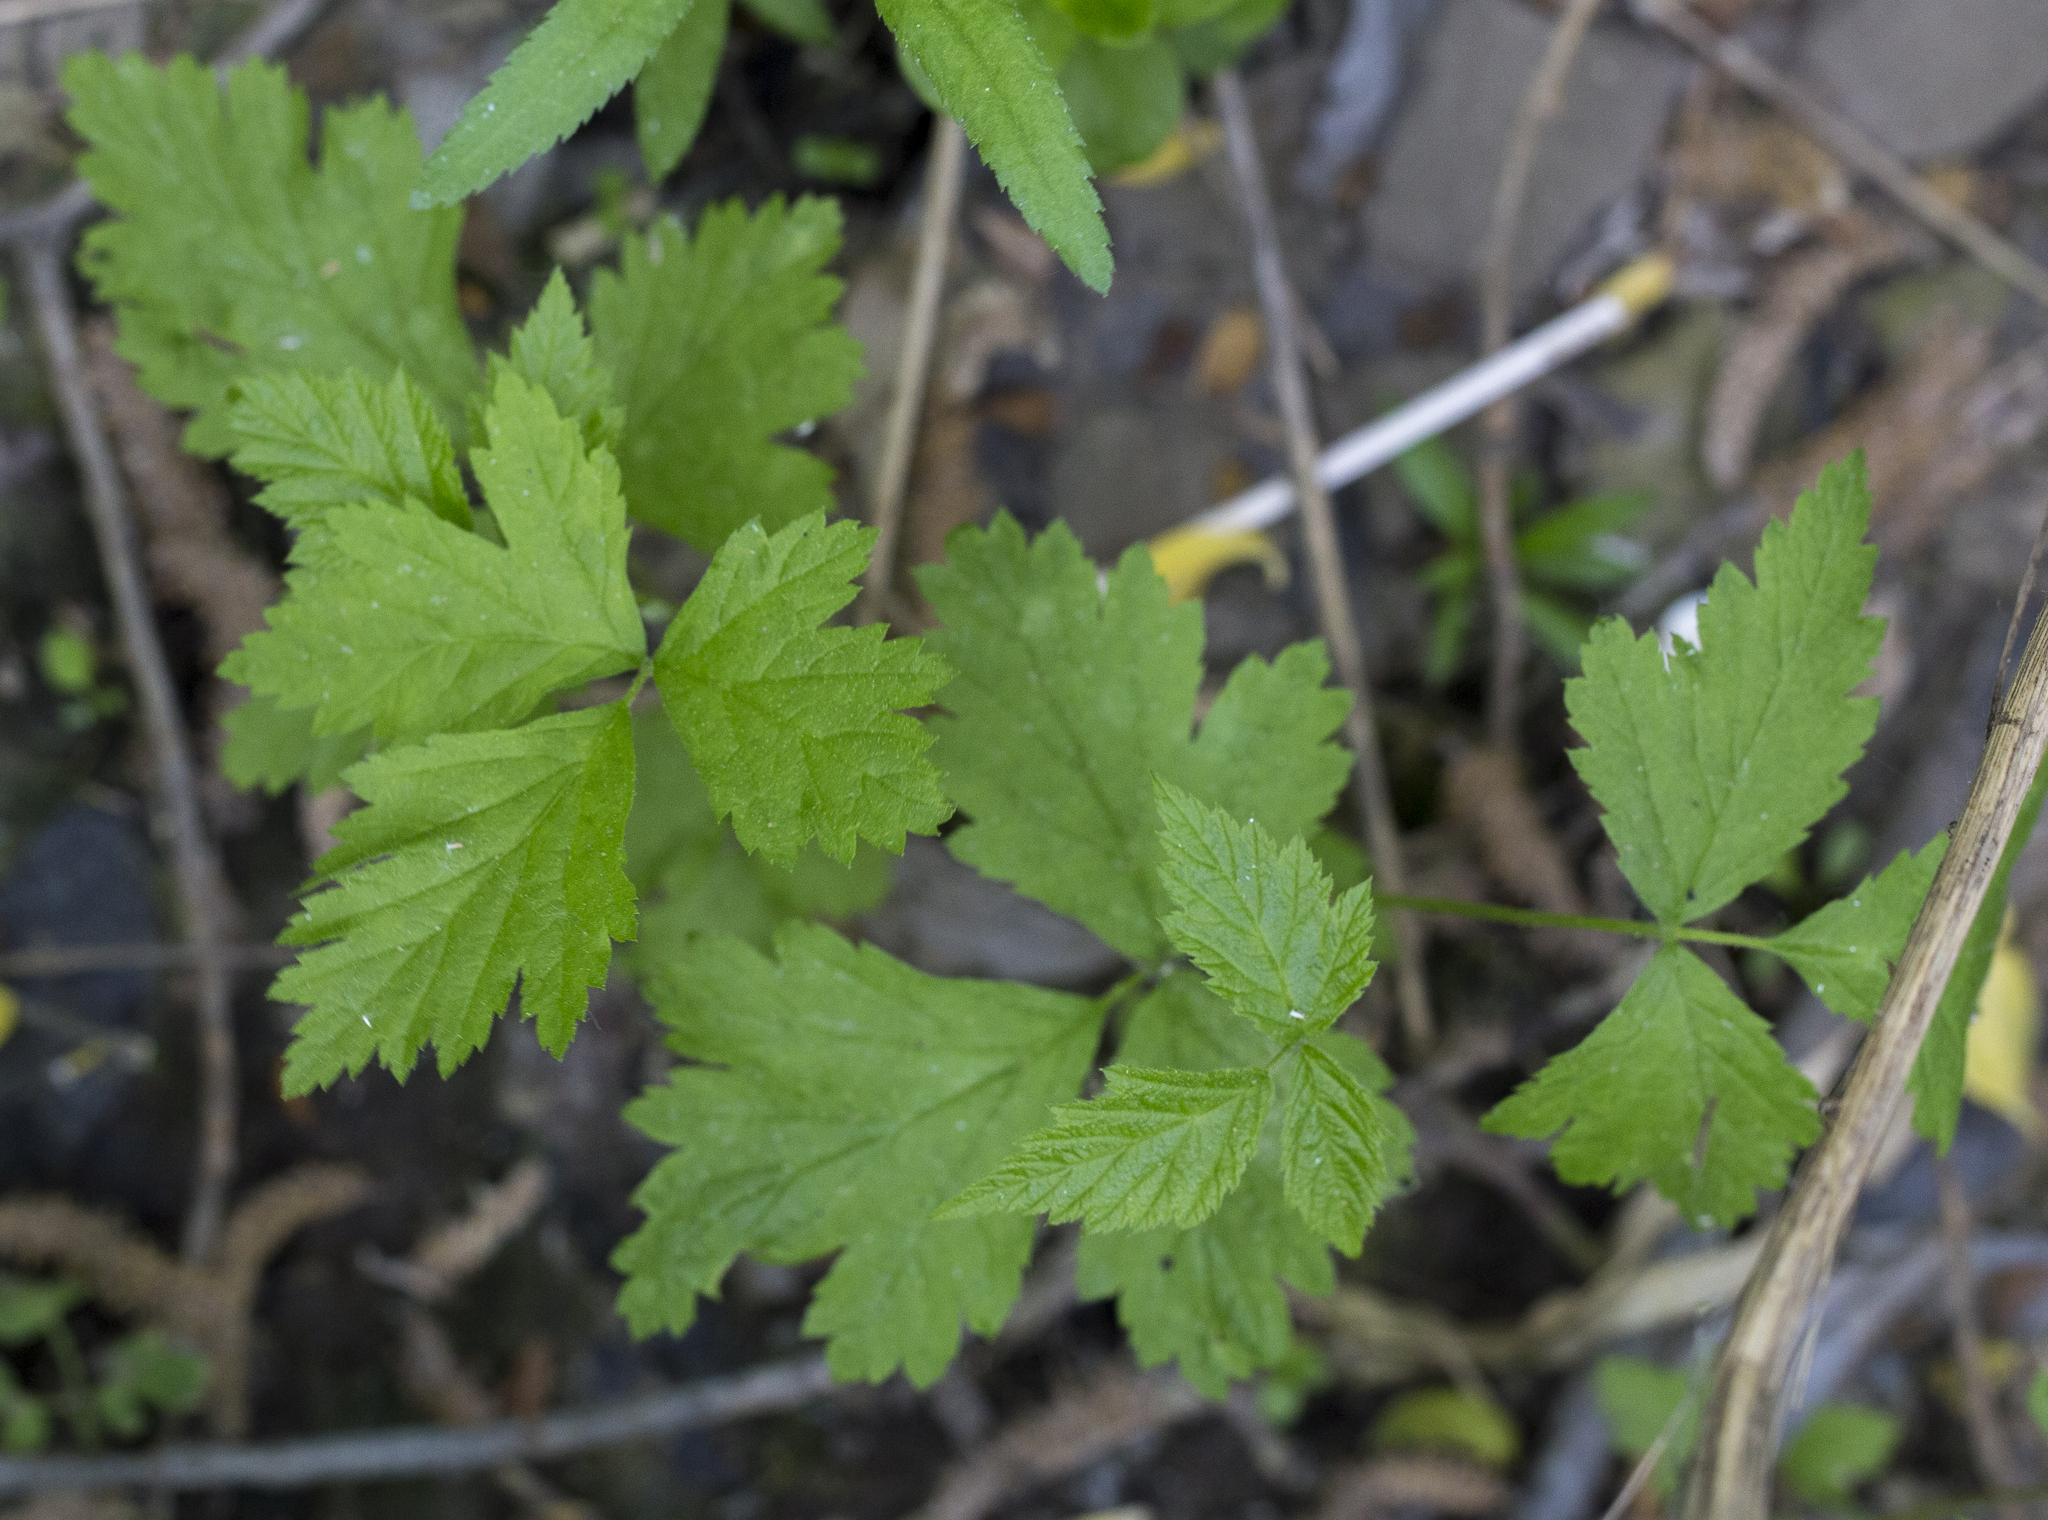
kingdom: Plantae
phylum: Tracheophyta
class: Magnoliopsida
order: Rosales
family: Rosaceae
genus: Rubus
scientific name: Rubus caesius
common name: Dewberry
